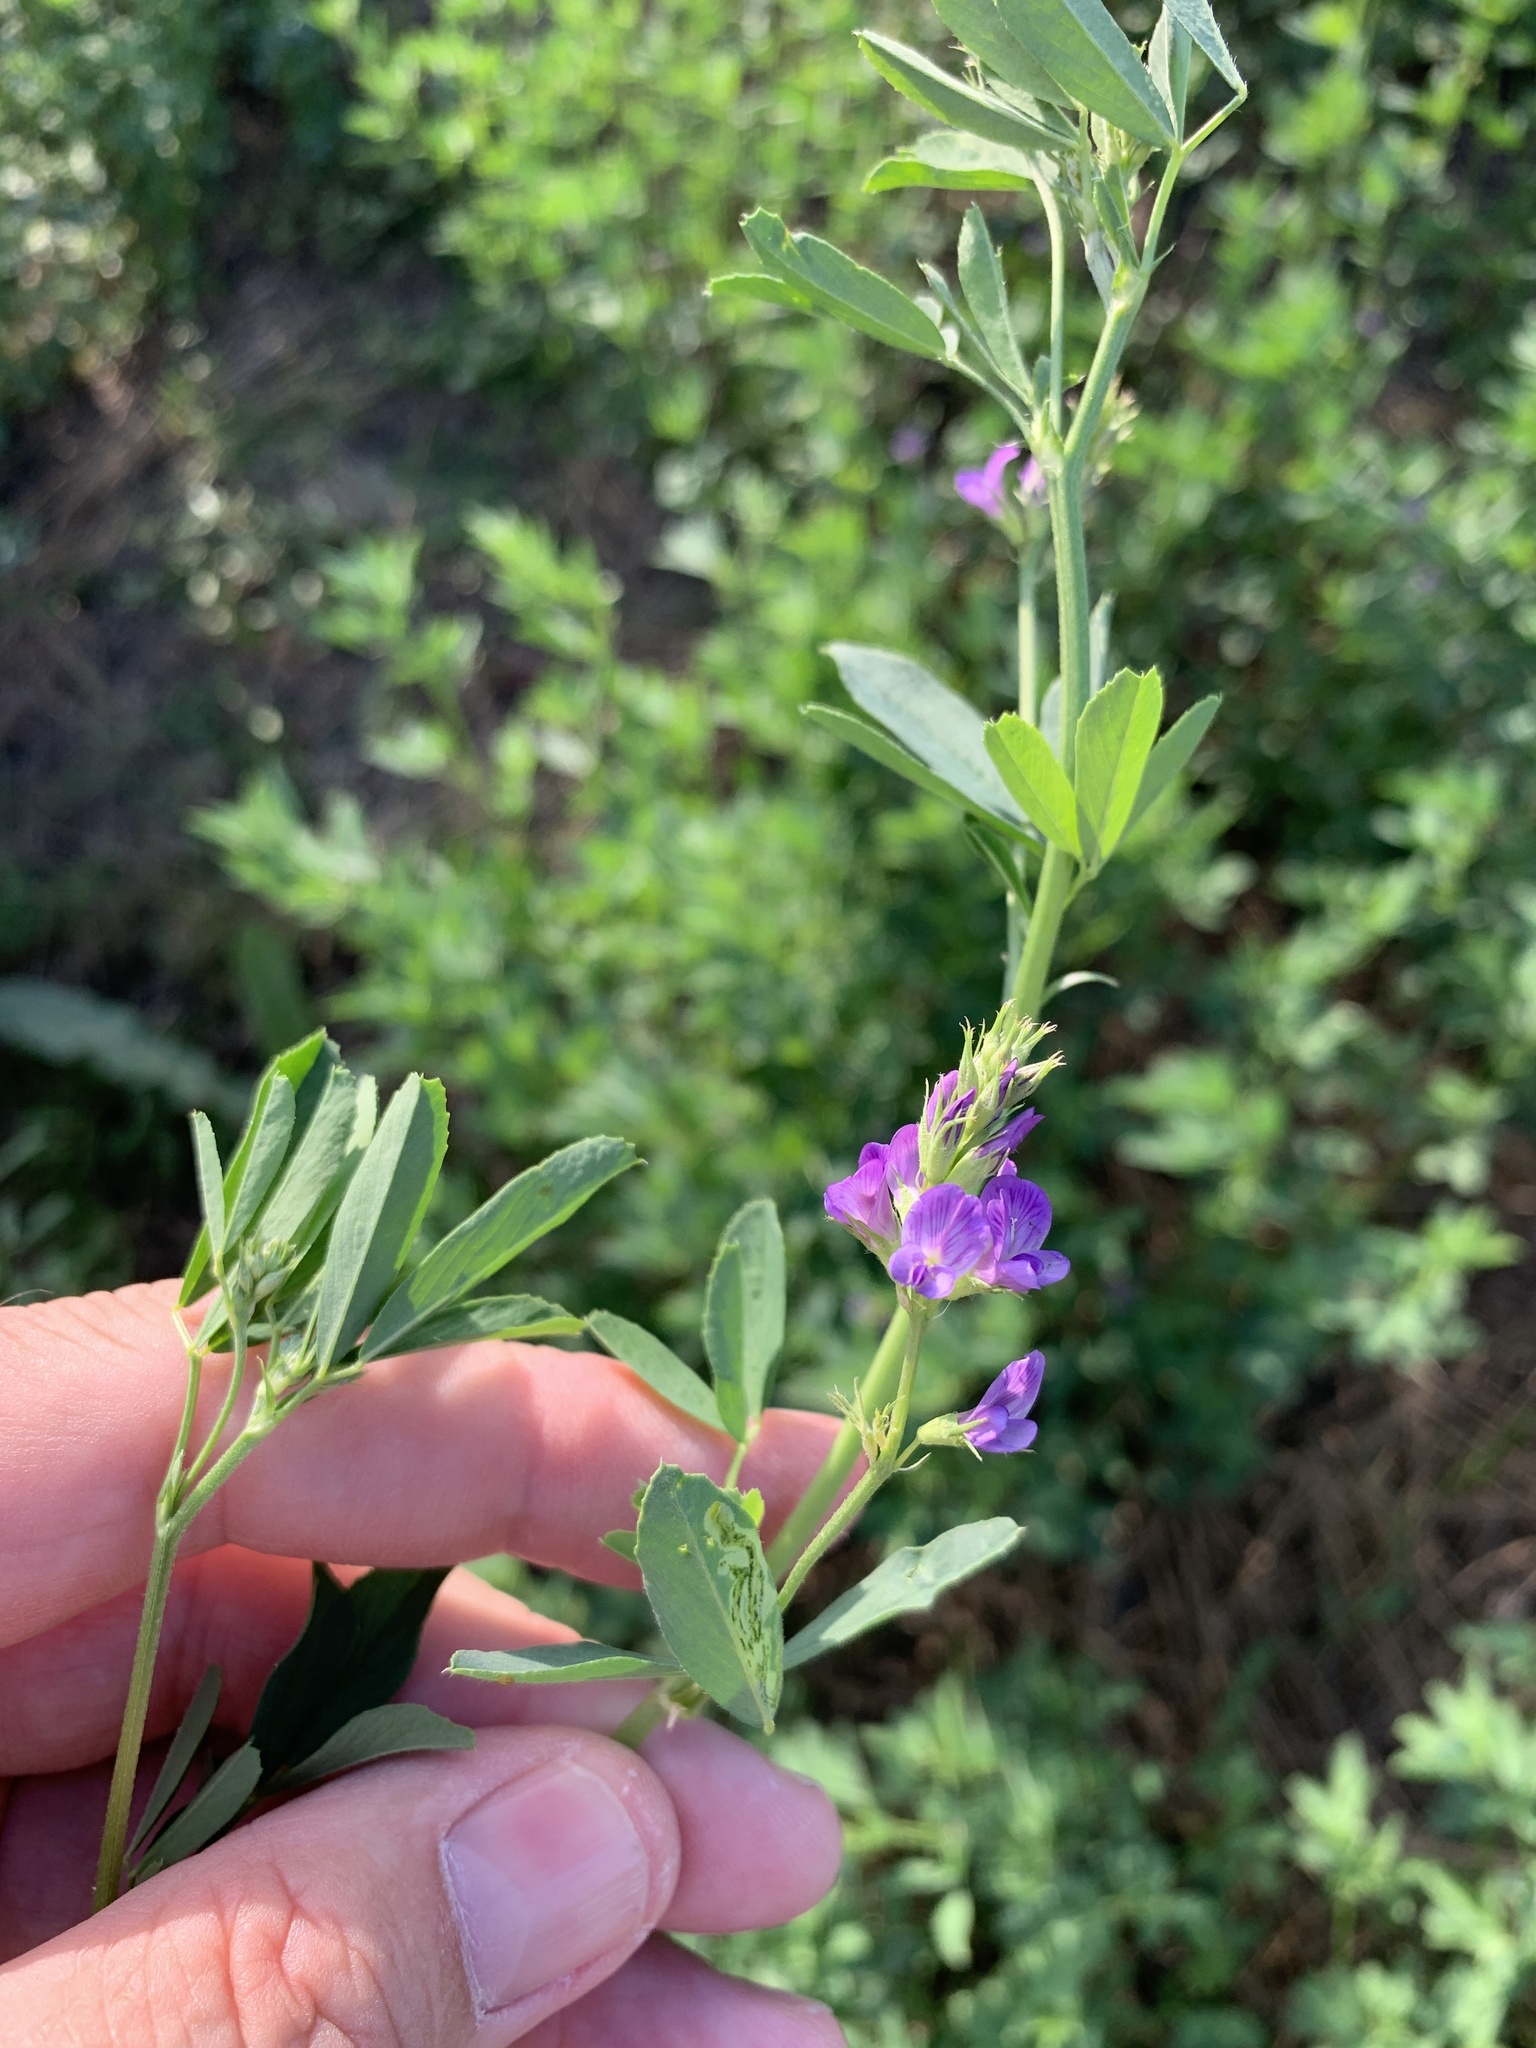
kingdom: Plantae
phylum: Tracheophyta
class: Magnoliopsida
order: Fabales
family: Fabaceae
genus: Medicago
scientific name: Medicago sativa
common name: Alfalfa
